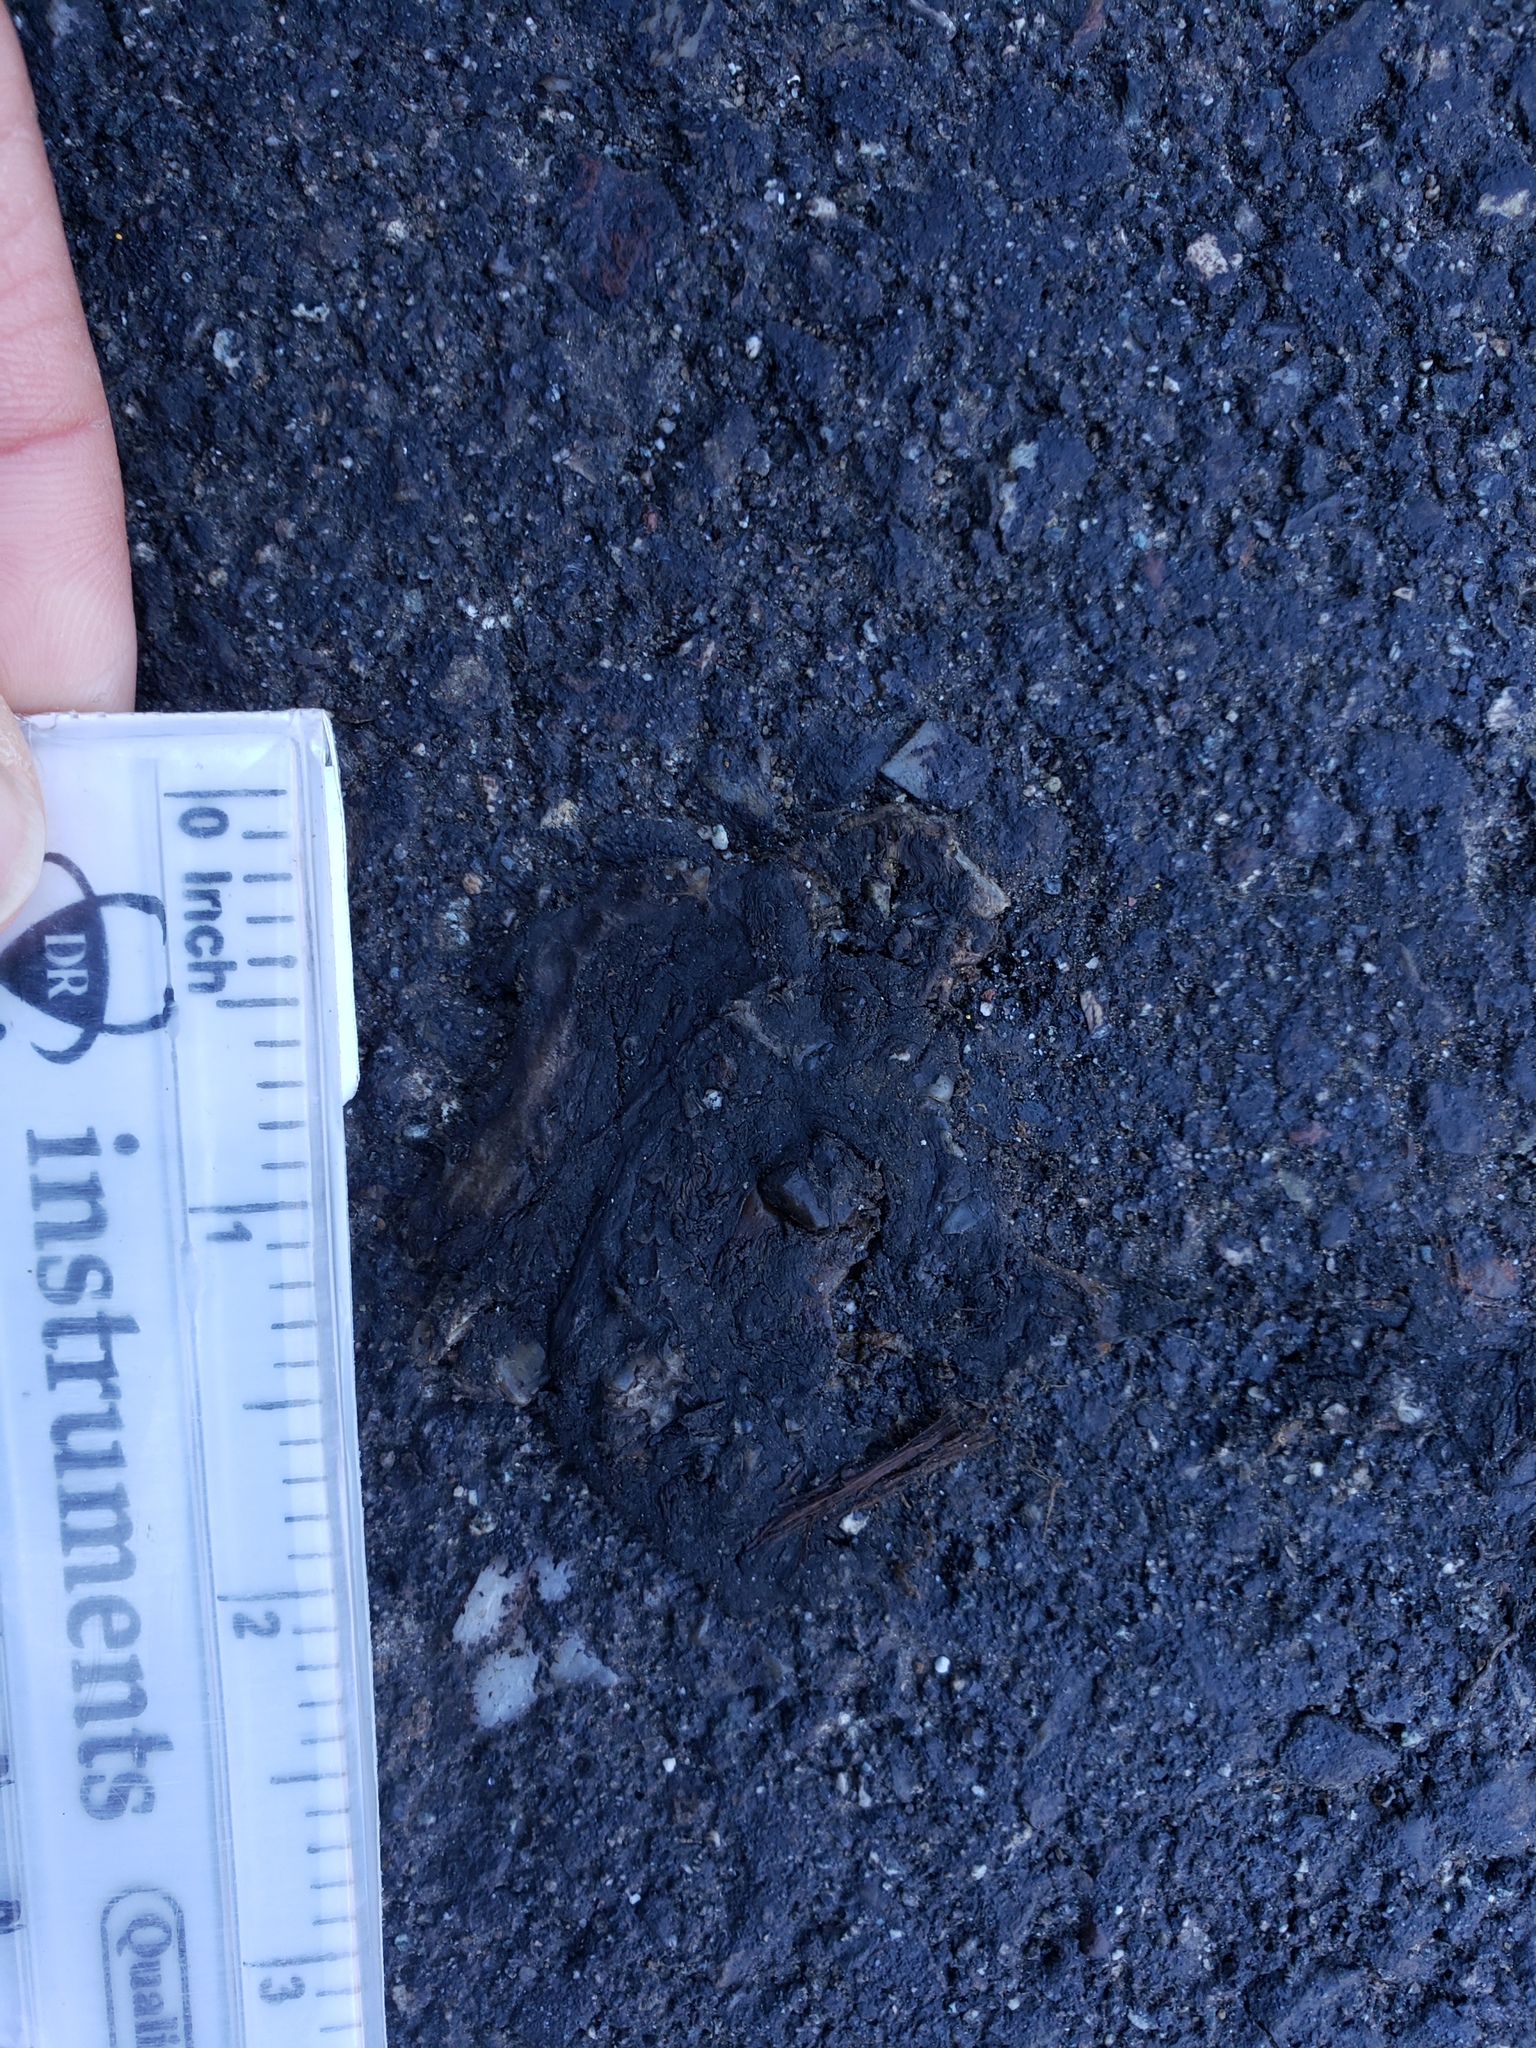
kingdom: Animalia
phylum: Chordata
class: Amphibia
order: Caudata
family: Salamandridae
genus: Taricha
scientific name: Taricha
